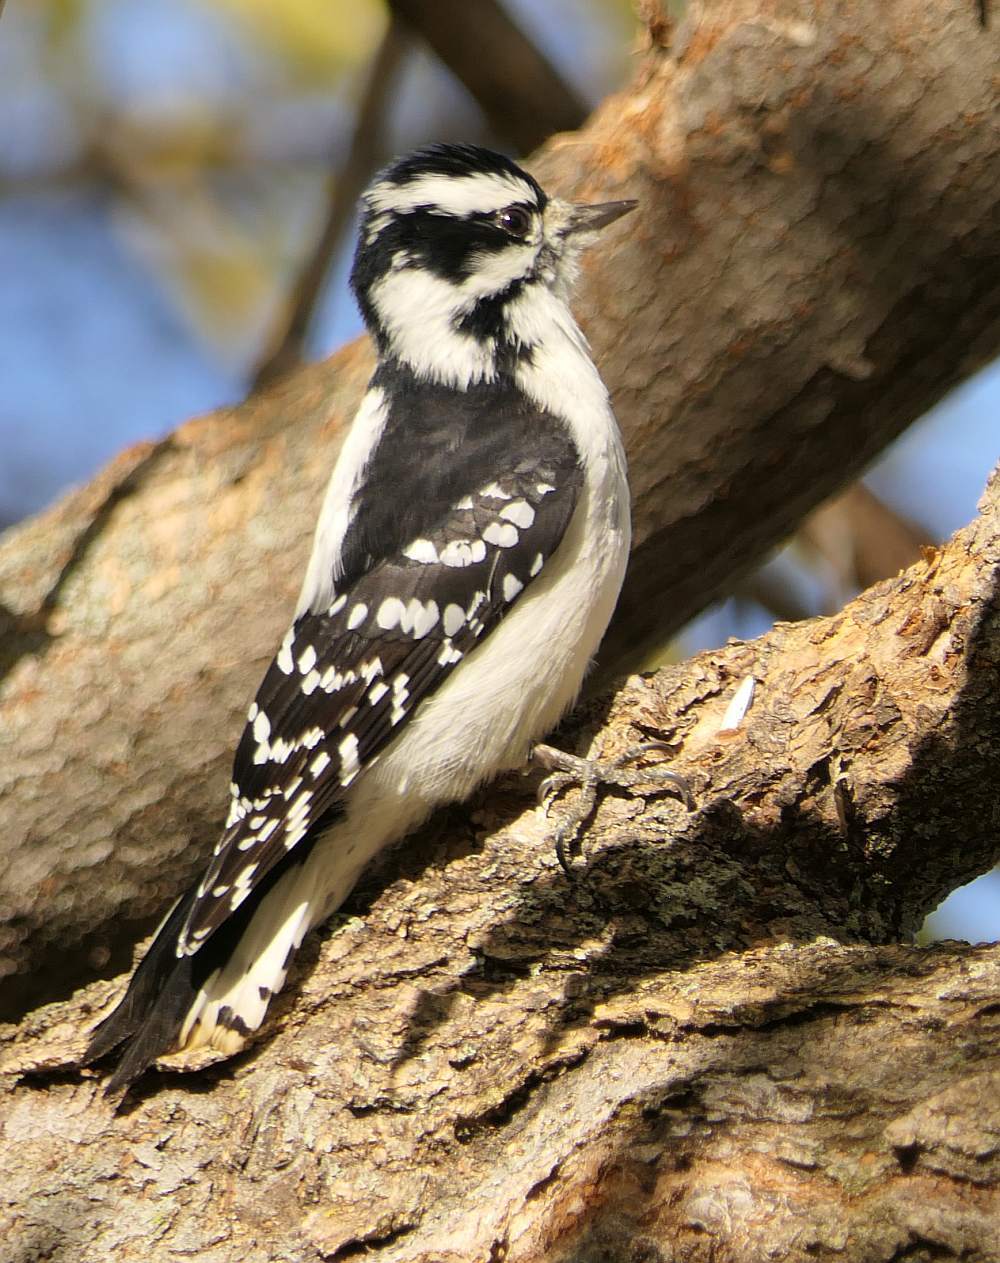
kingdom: Animalia
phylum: Chordata
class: Aves
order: Piciformes
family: Picidae
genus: Dryobates
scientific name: Dryobates pubescens
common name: Downy woodpecker
